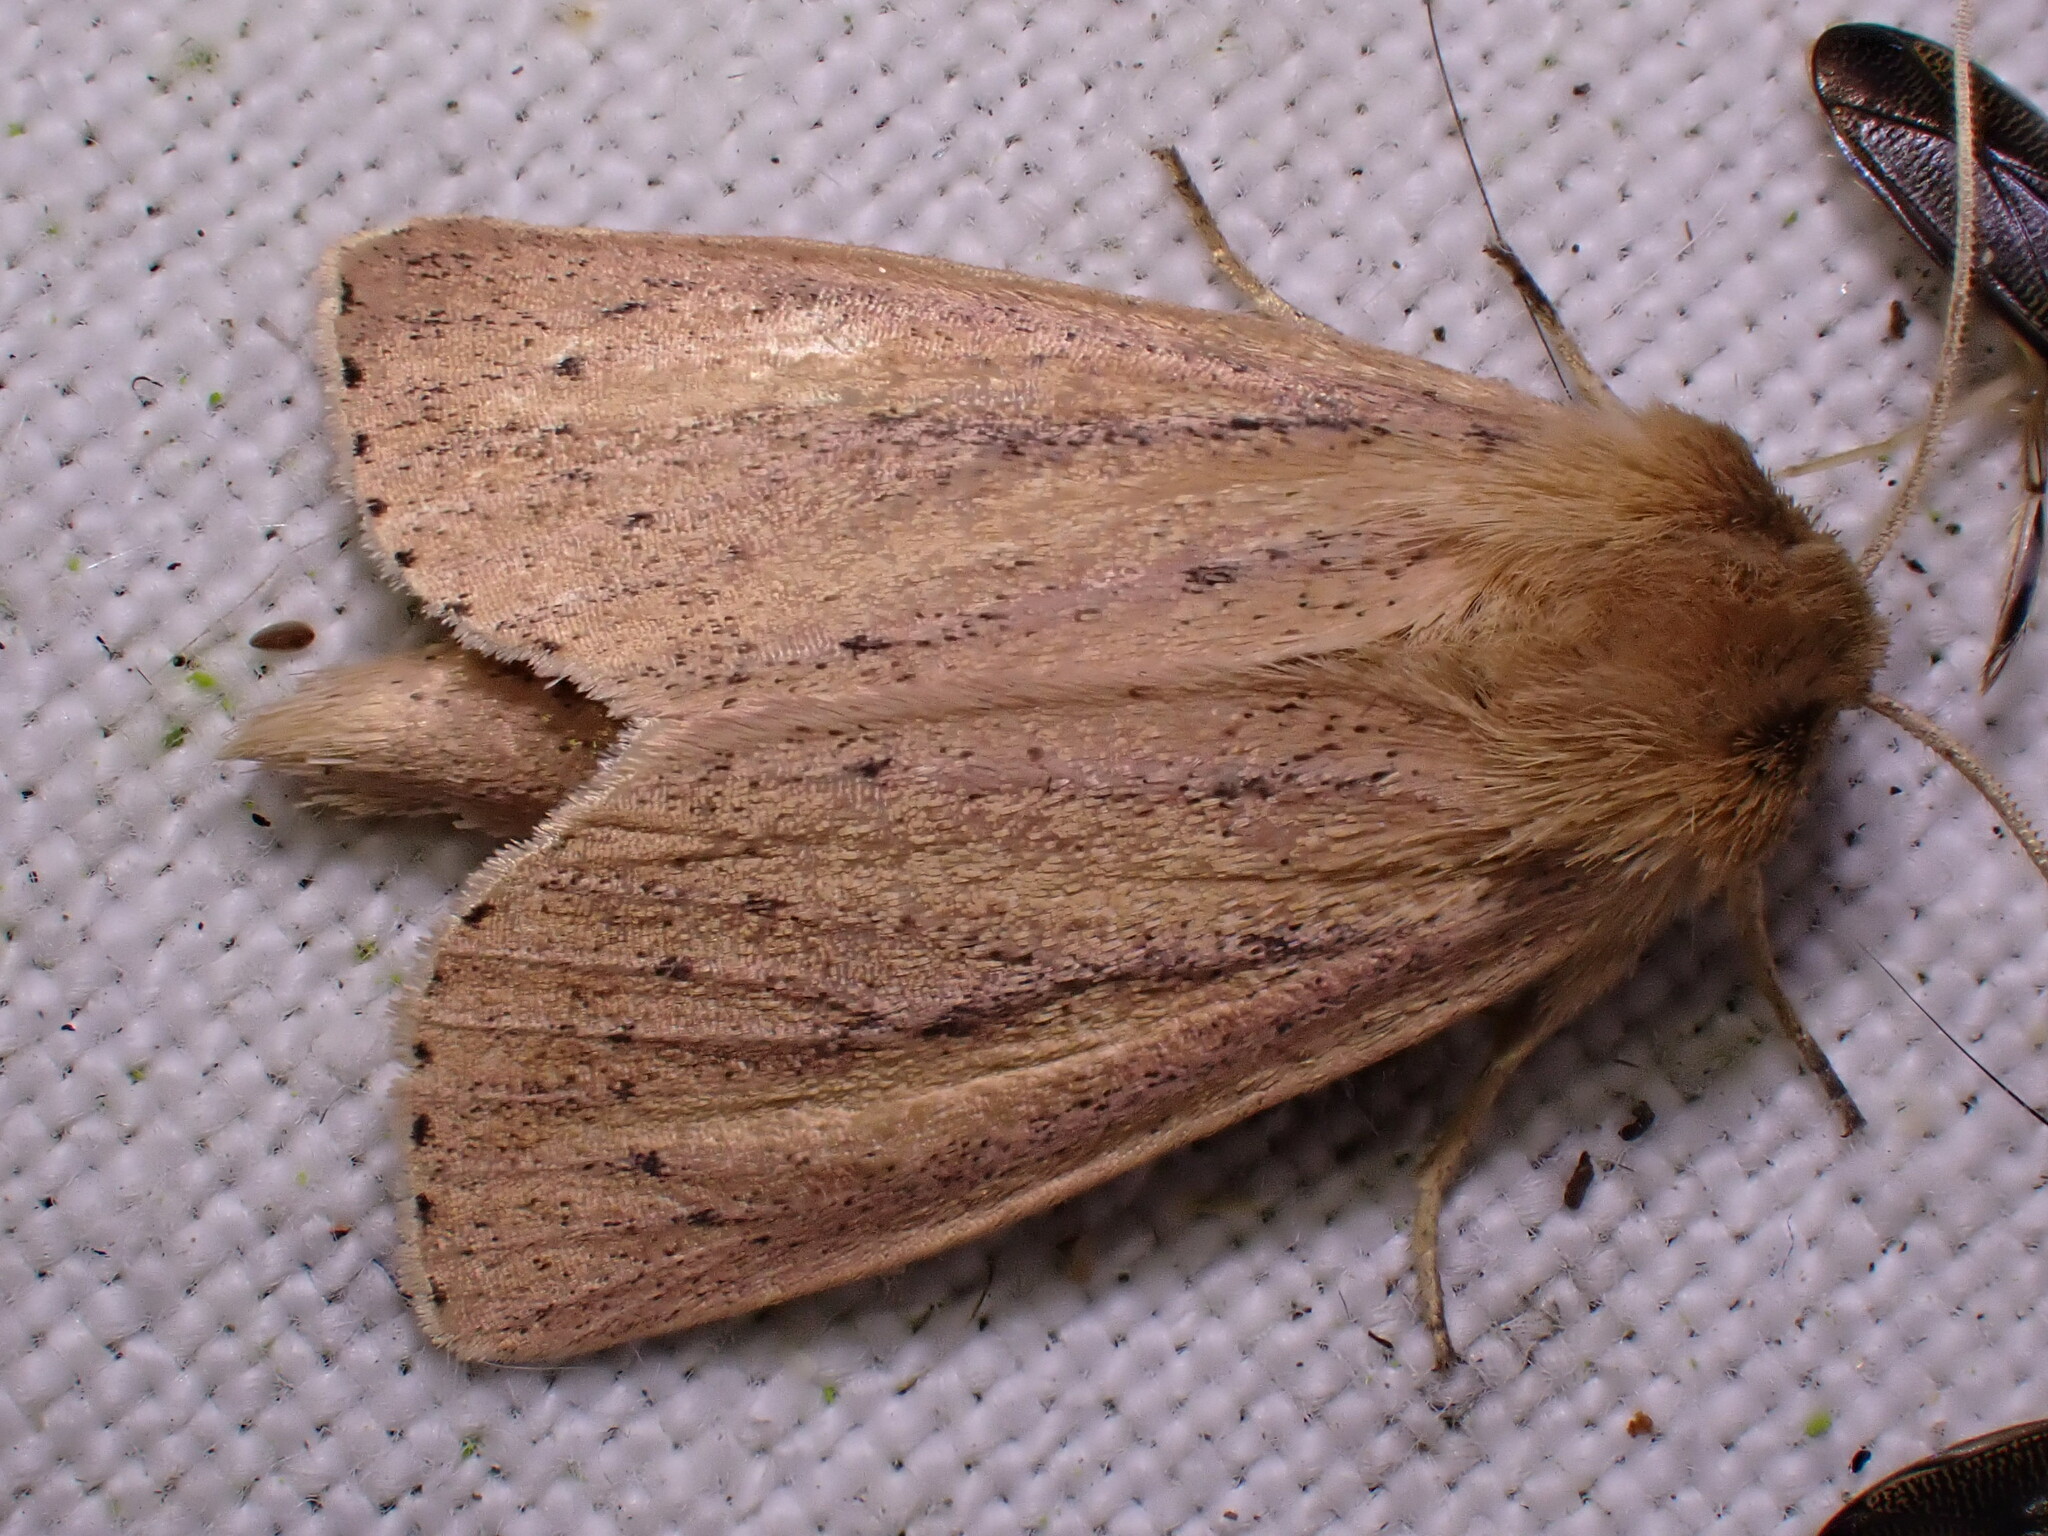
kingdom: Animalia
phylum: Arthropoda
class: Insecta
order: Lepidoptera
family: Noctuidae
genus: Globia
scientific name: Globia sparganii
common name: Webb's wainscot
